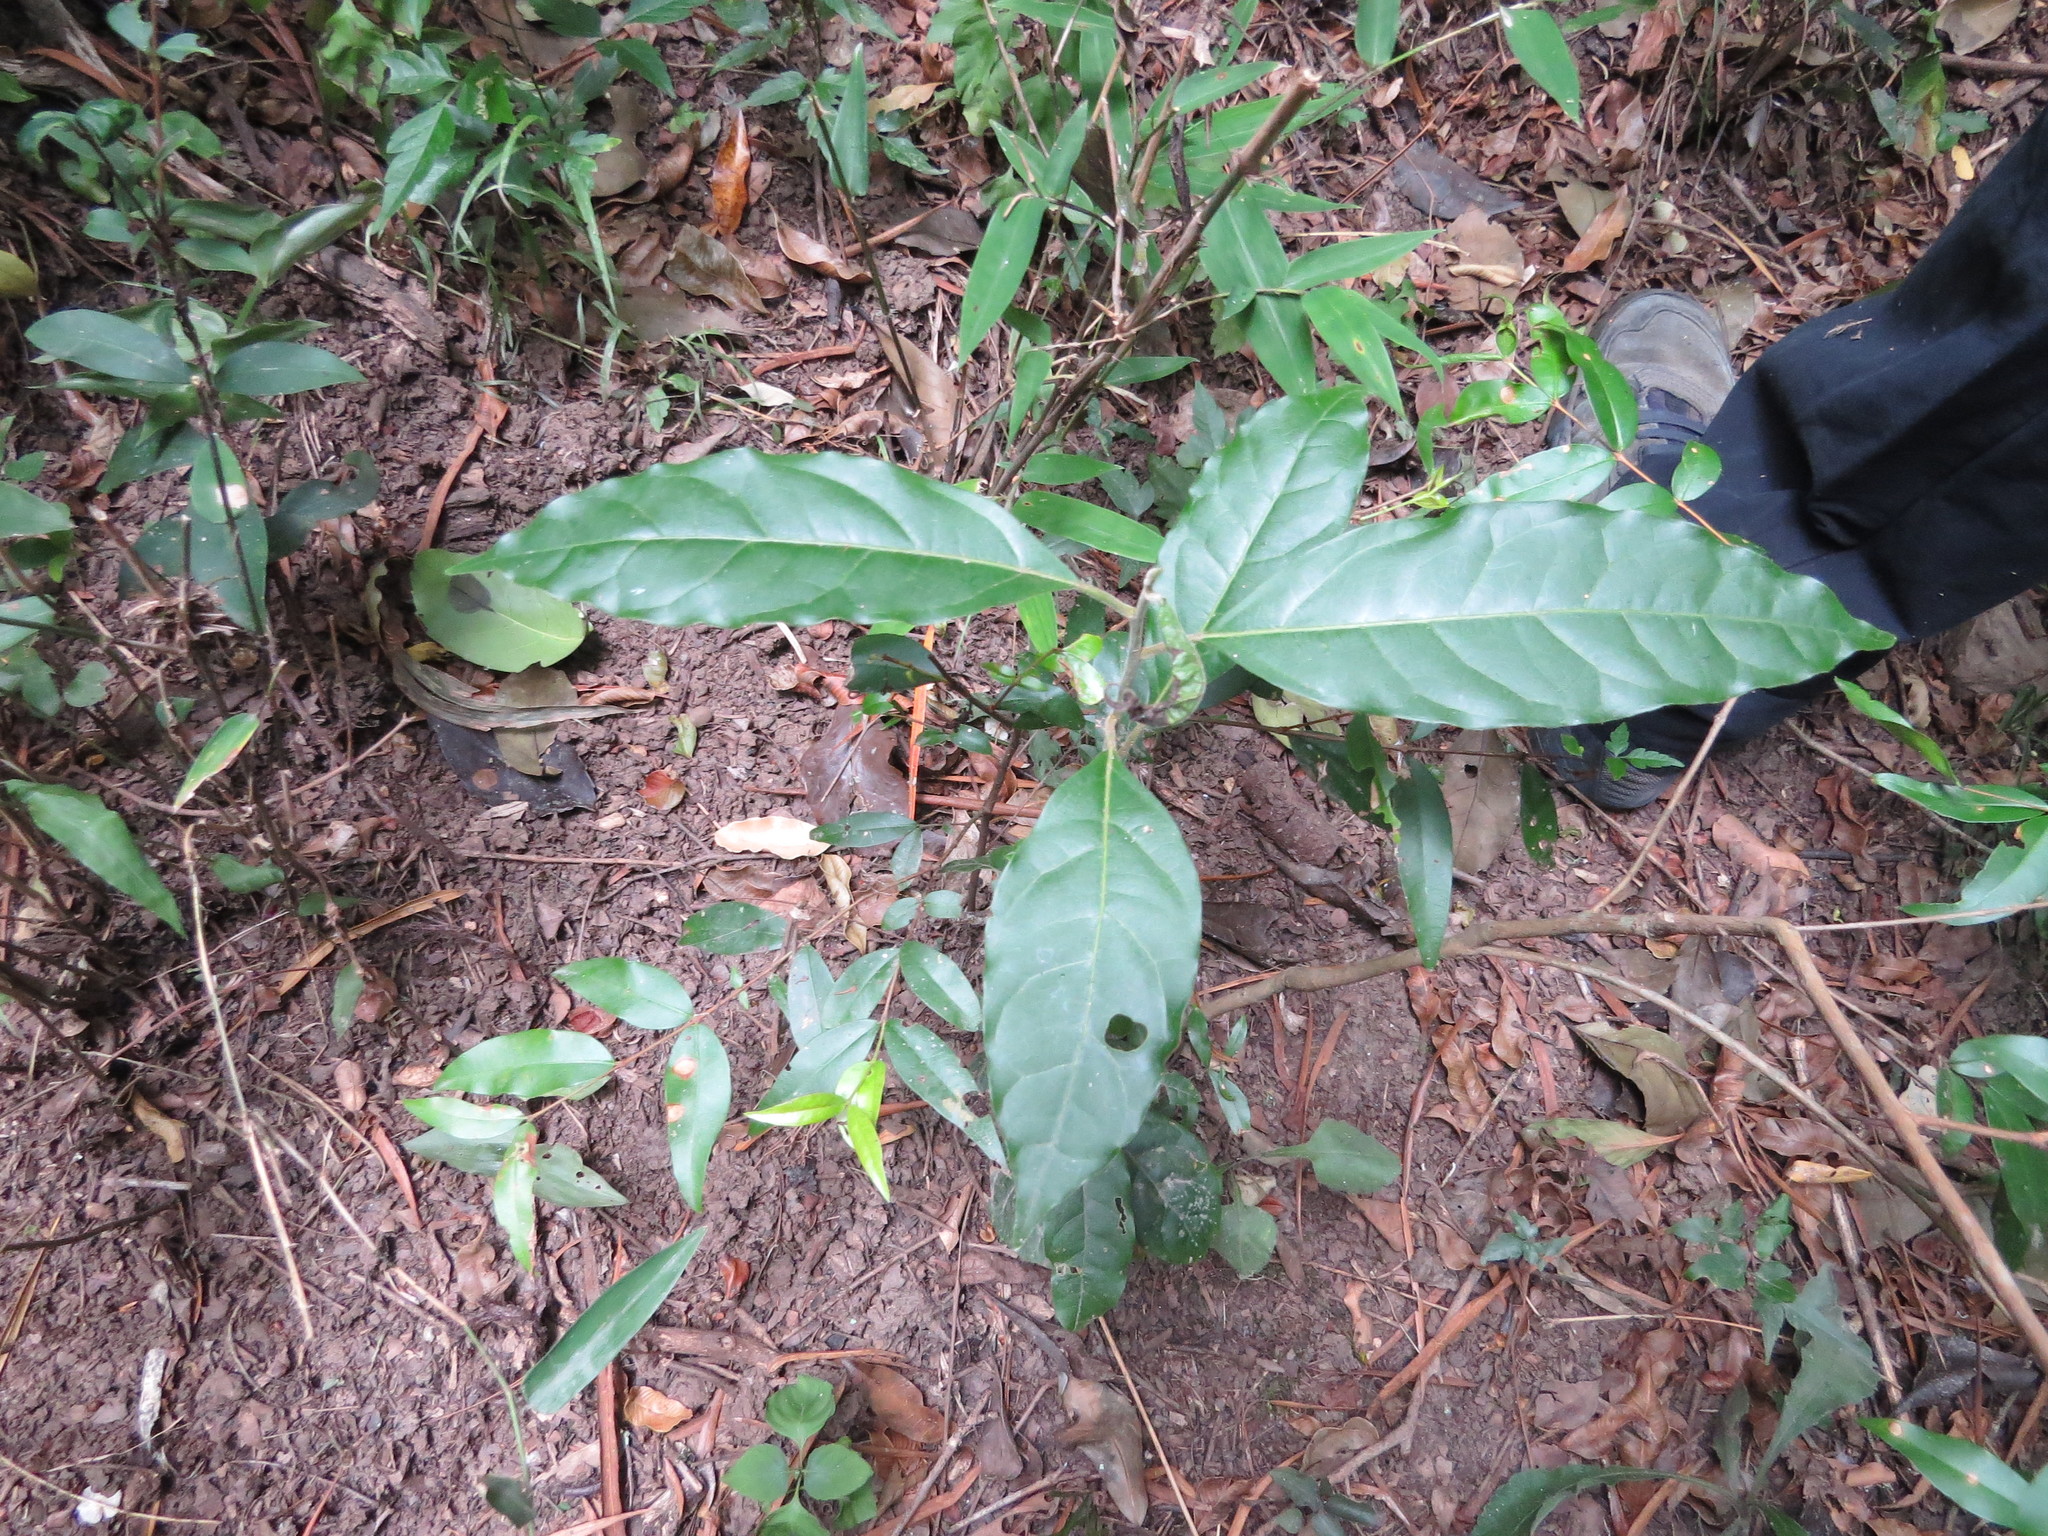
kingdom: Plantae
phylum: Tracheophyta
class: Magnoliopsida
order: Laurales
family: Lauraceae
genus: Ocotea
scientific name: Ocotea puberula
